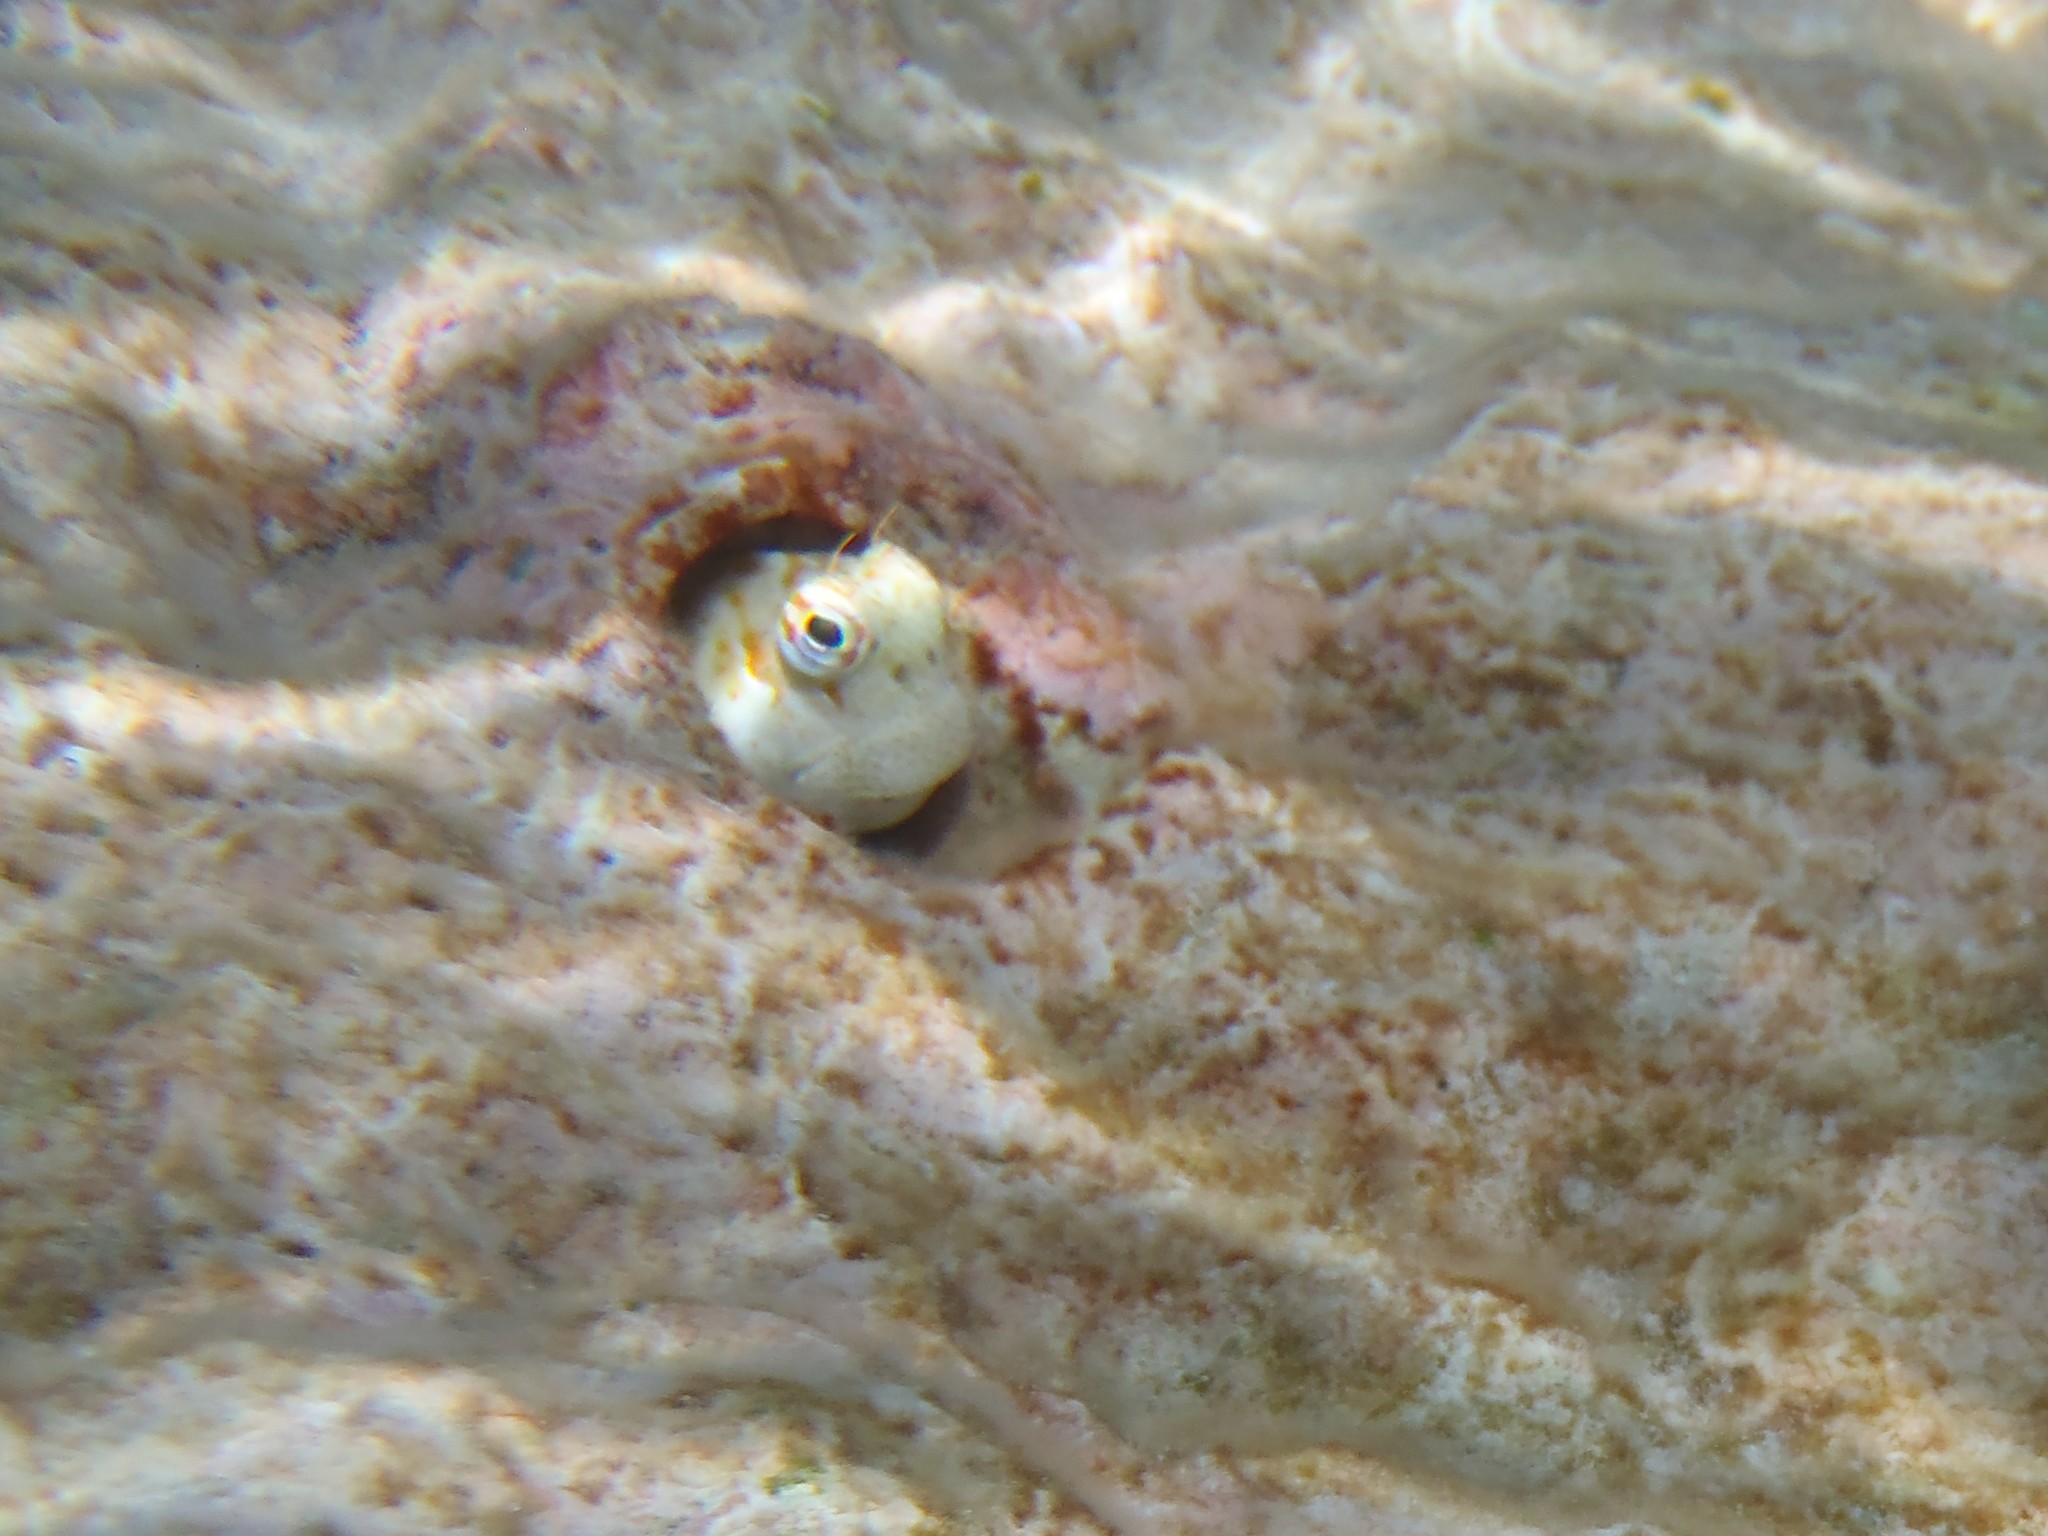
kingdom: Animalia
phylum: Chordata
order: Perciformes
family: Blenniidae
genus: Blenniella
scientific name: Blenniella chrysospilos
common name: Orange-spotted blenny
